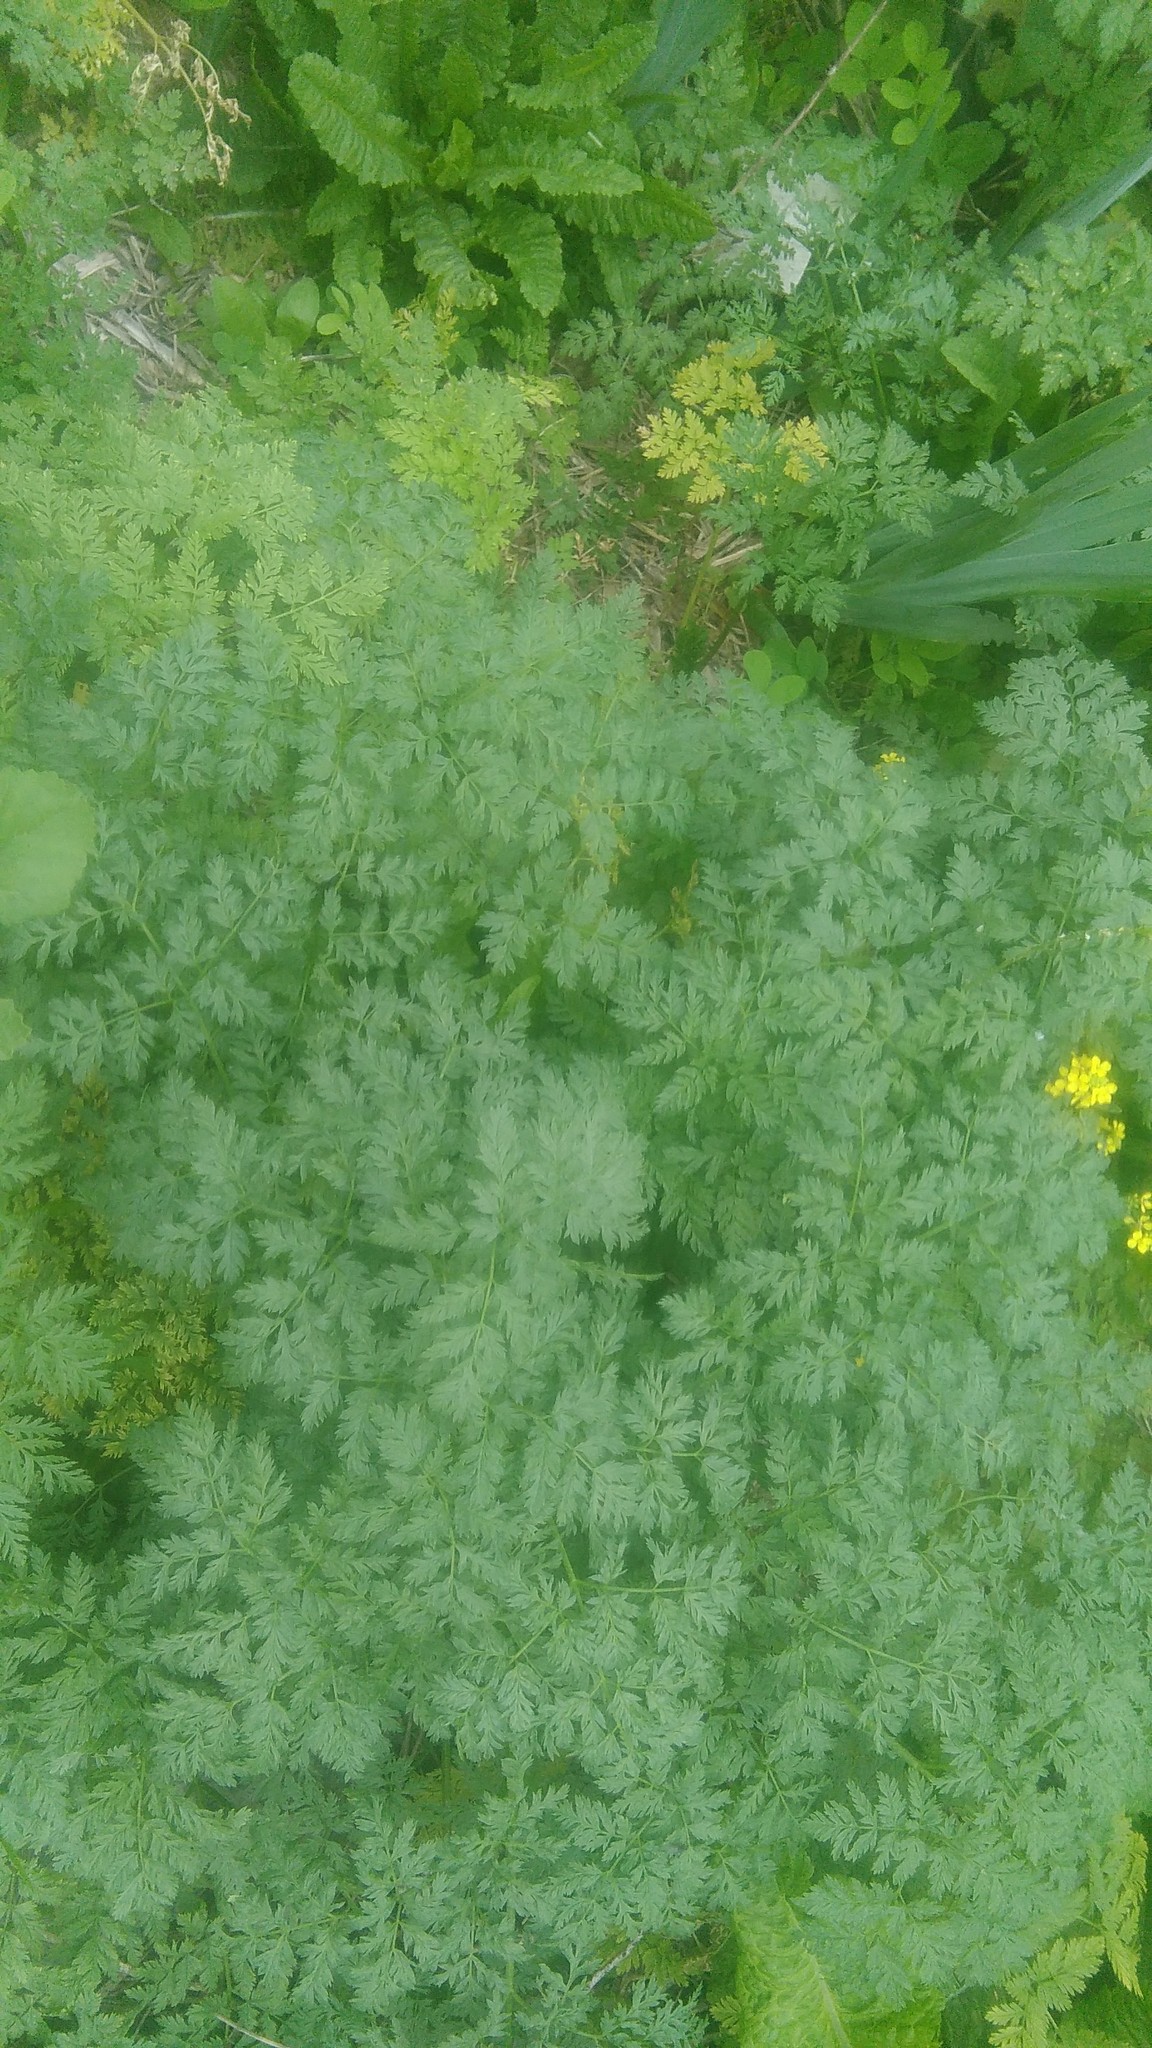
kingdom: Plantae
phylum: Tracheophyta
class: Magnoliopsida
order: Apiales
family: Apiaceae
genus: Conium
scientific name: Conium maculatum
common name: Hemlock
